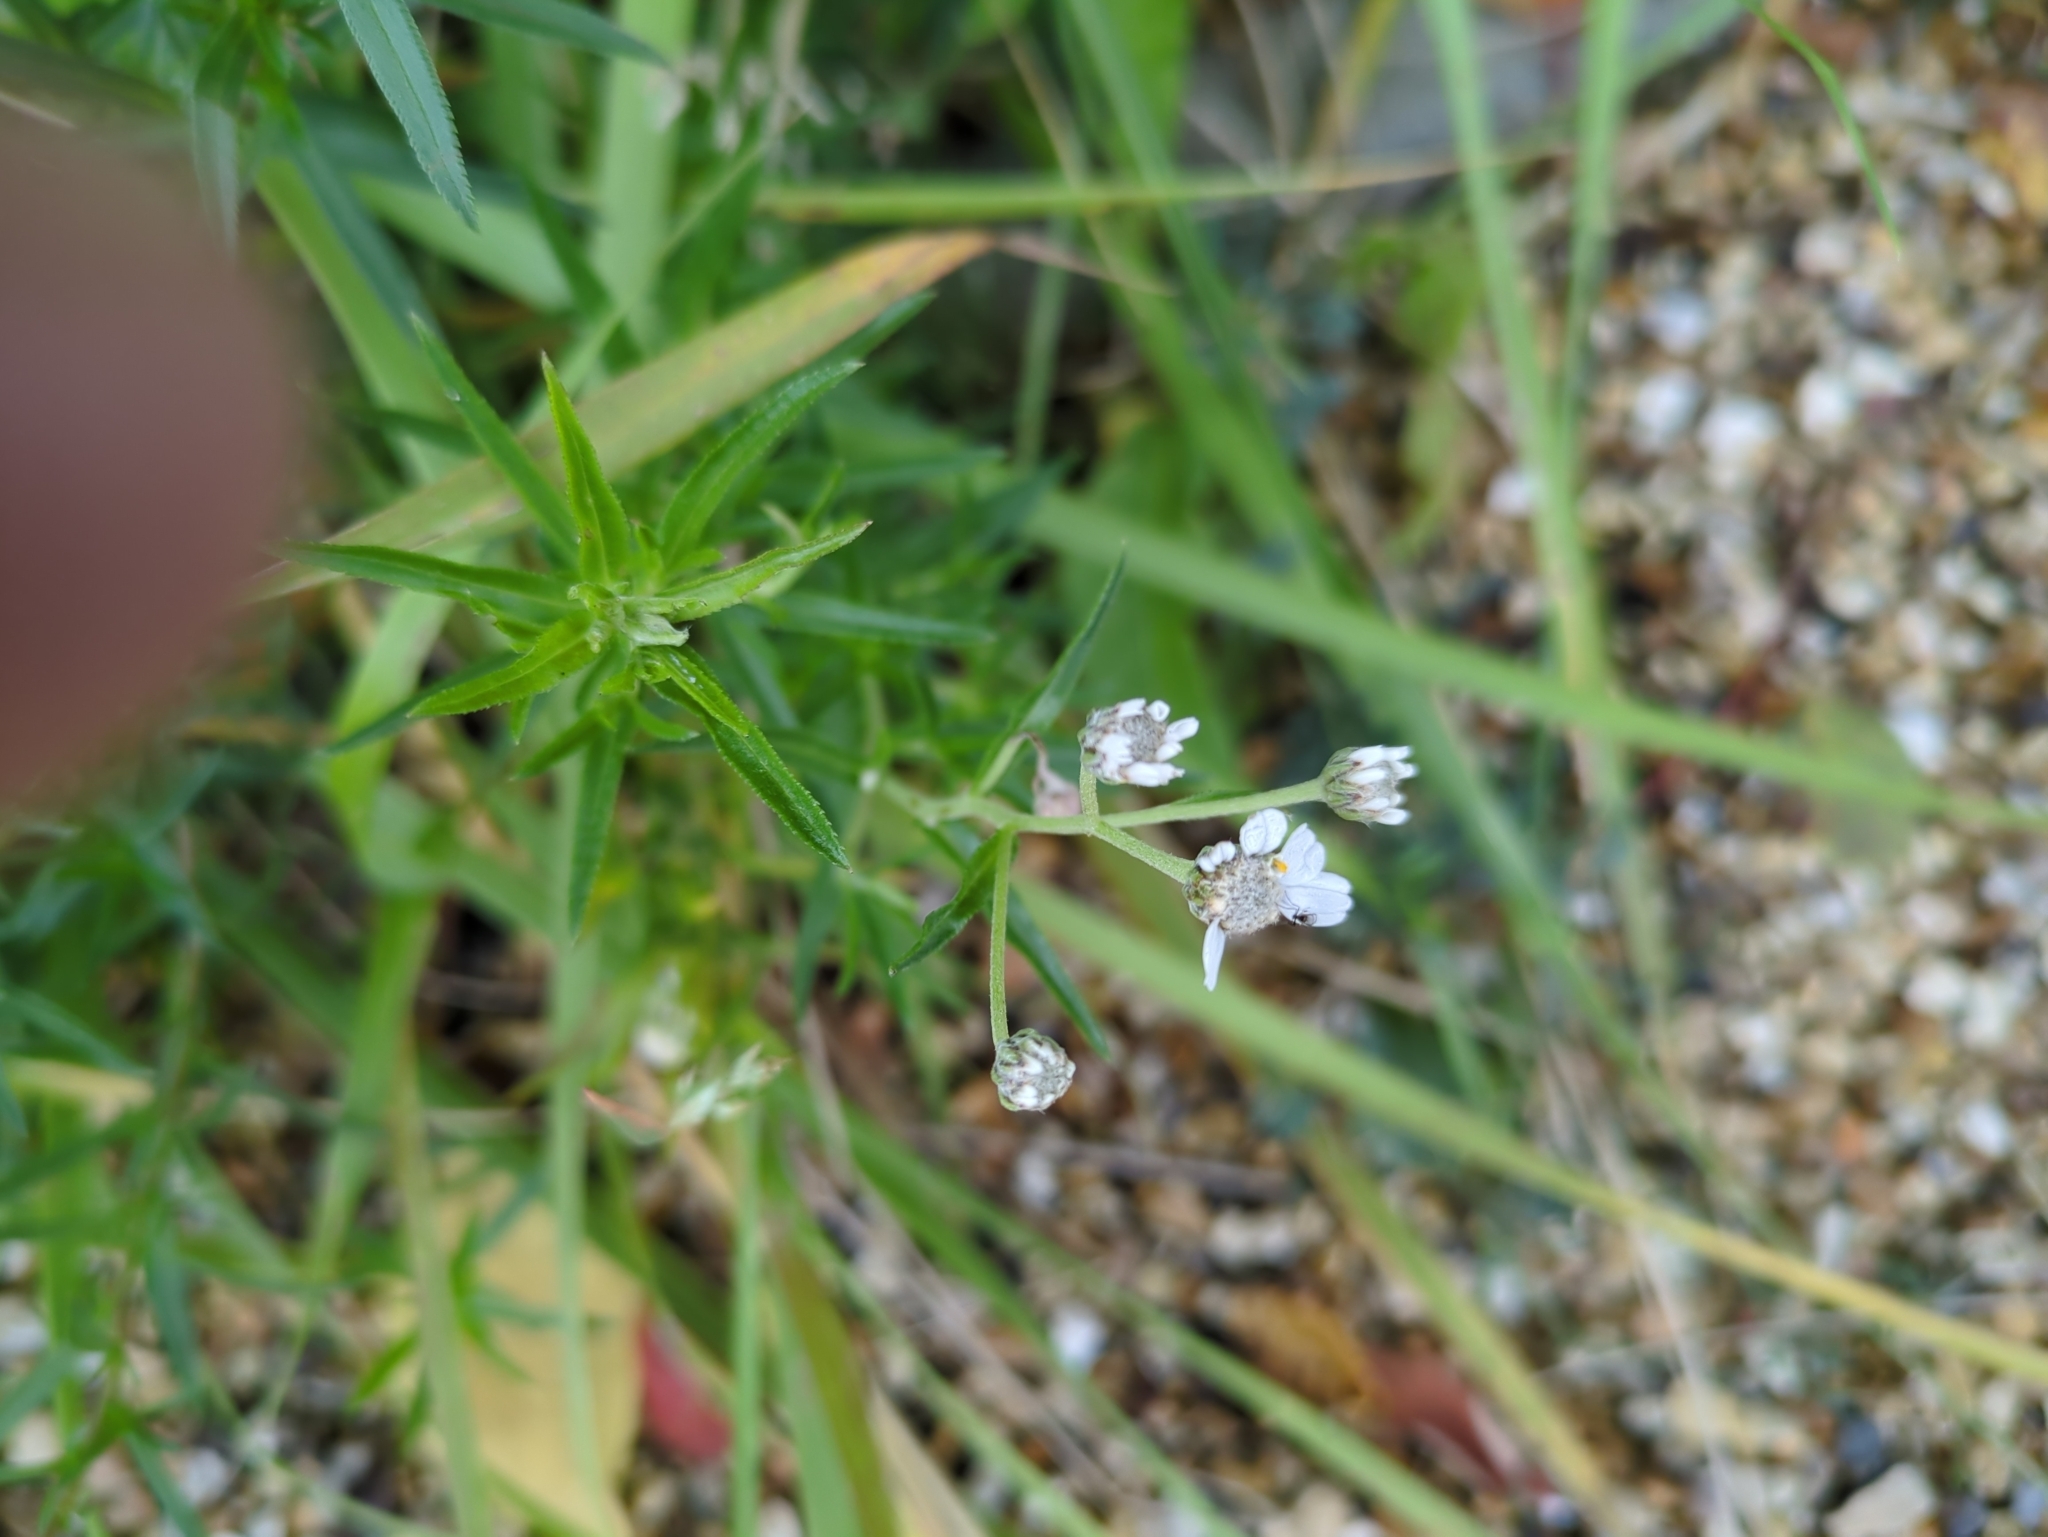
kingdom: Plantae
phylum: Tracheophyta
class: Magnoliopsida
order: Asterales
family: Asteraceae
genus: Achillea
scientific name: Achillea ptarmica
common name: Sneezeweed
